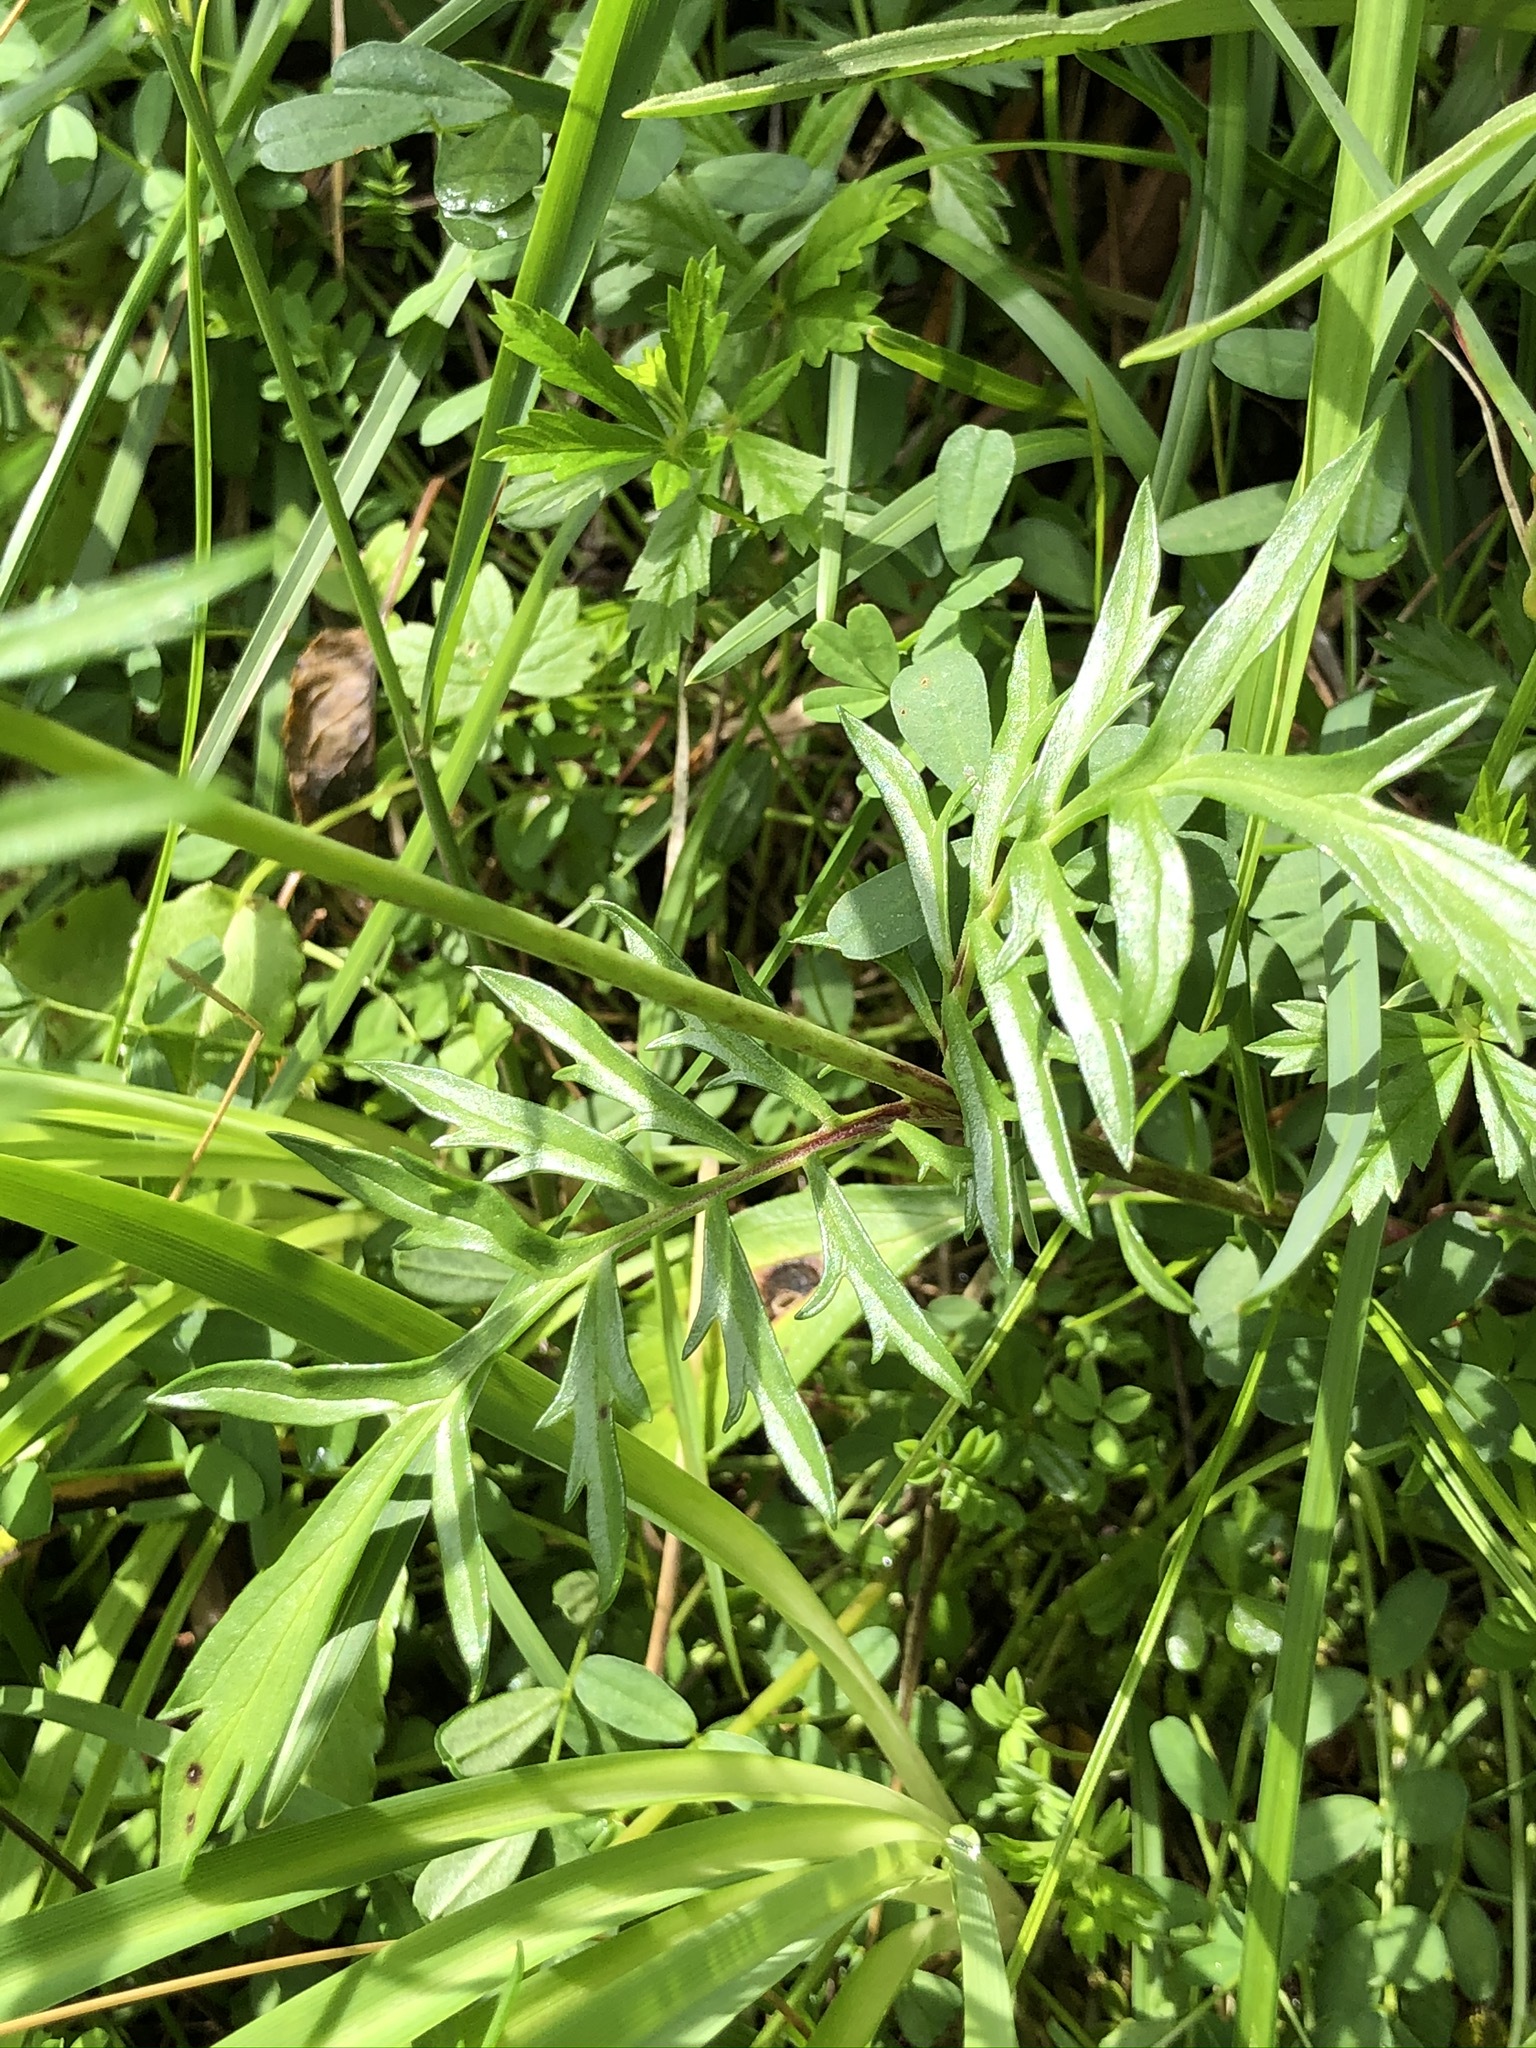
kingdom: Plantae
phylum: Tracheophyta
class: Magnoliopsida
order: Dipsacales
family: Caprifoliaceae
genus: Scabiosa
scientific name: Scabiosa lucida
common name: Shining scabious
